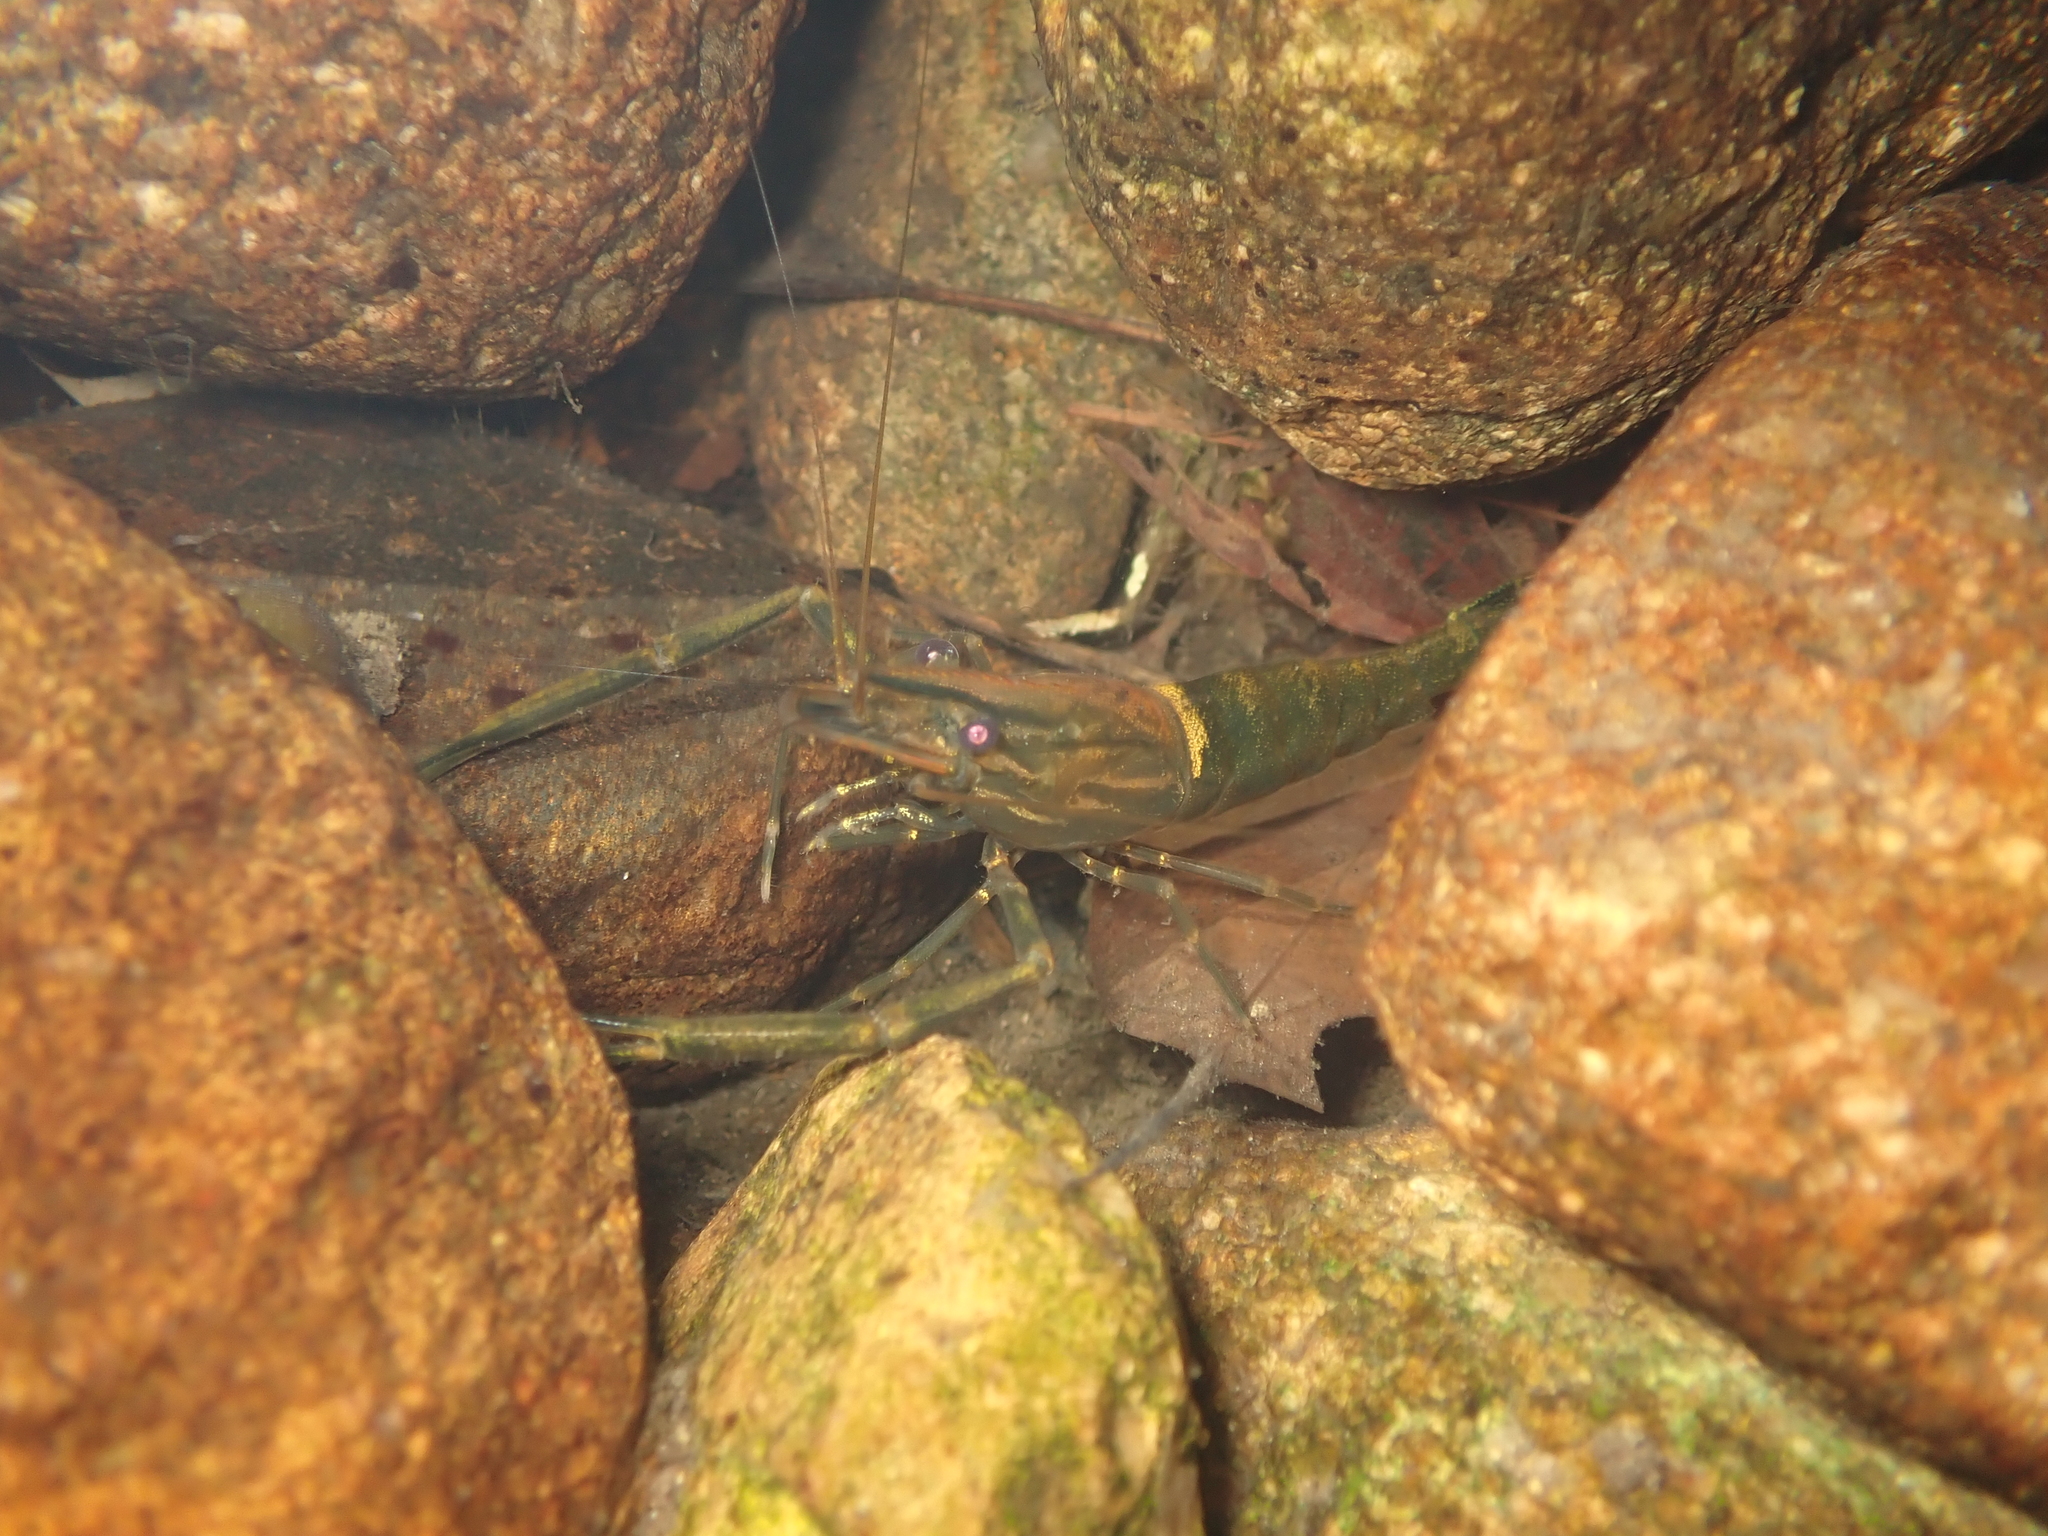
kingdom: Animalia
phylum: Arthropoda
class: Malacostraca
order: Decapoda
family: Palaemonidae
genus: Macrobrachium
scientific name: Macrobrachium laevis
